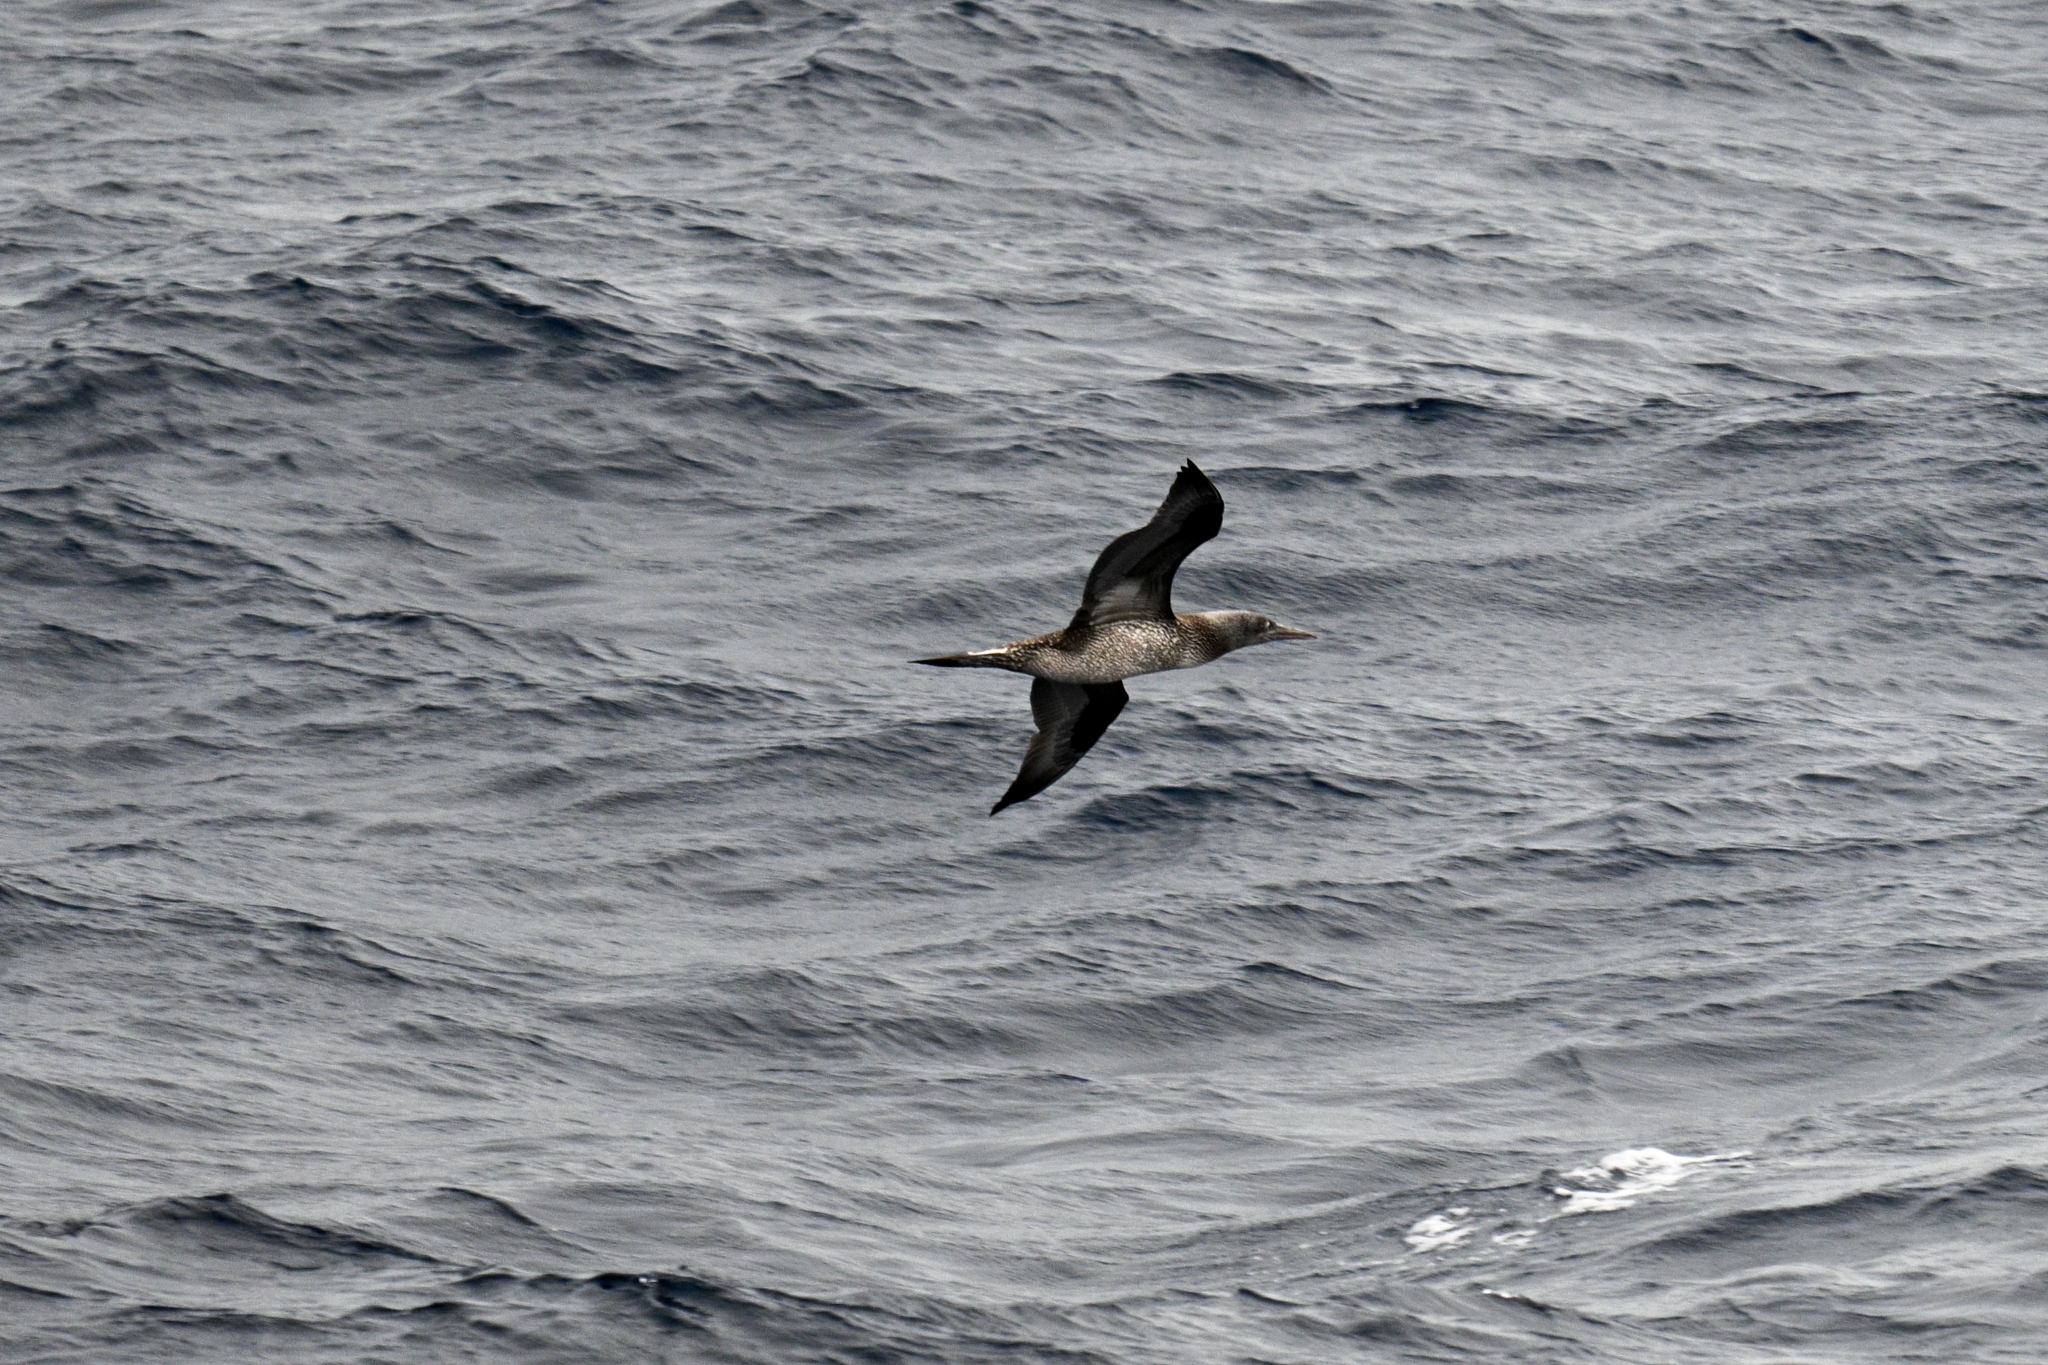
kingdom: Animalia
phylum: Chordata
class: Aves
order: Suliformes
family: Sulidae
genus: Morus
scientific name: Morus bassanus
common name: Northern gannet
